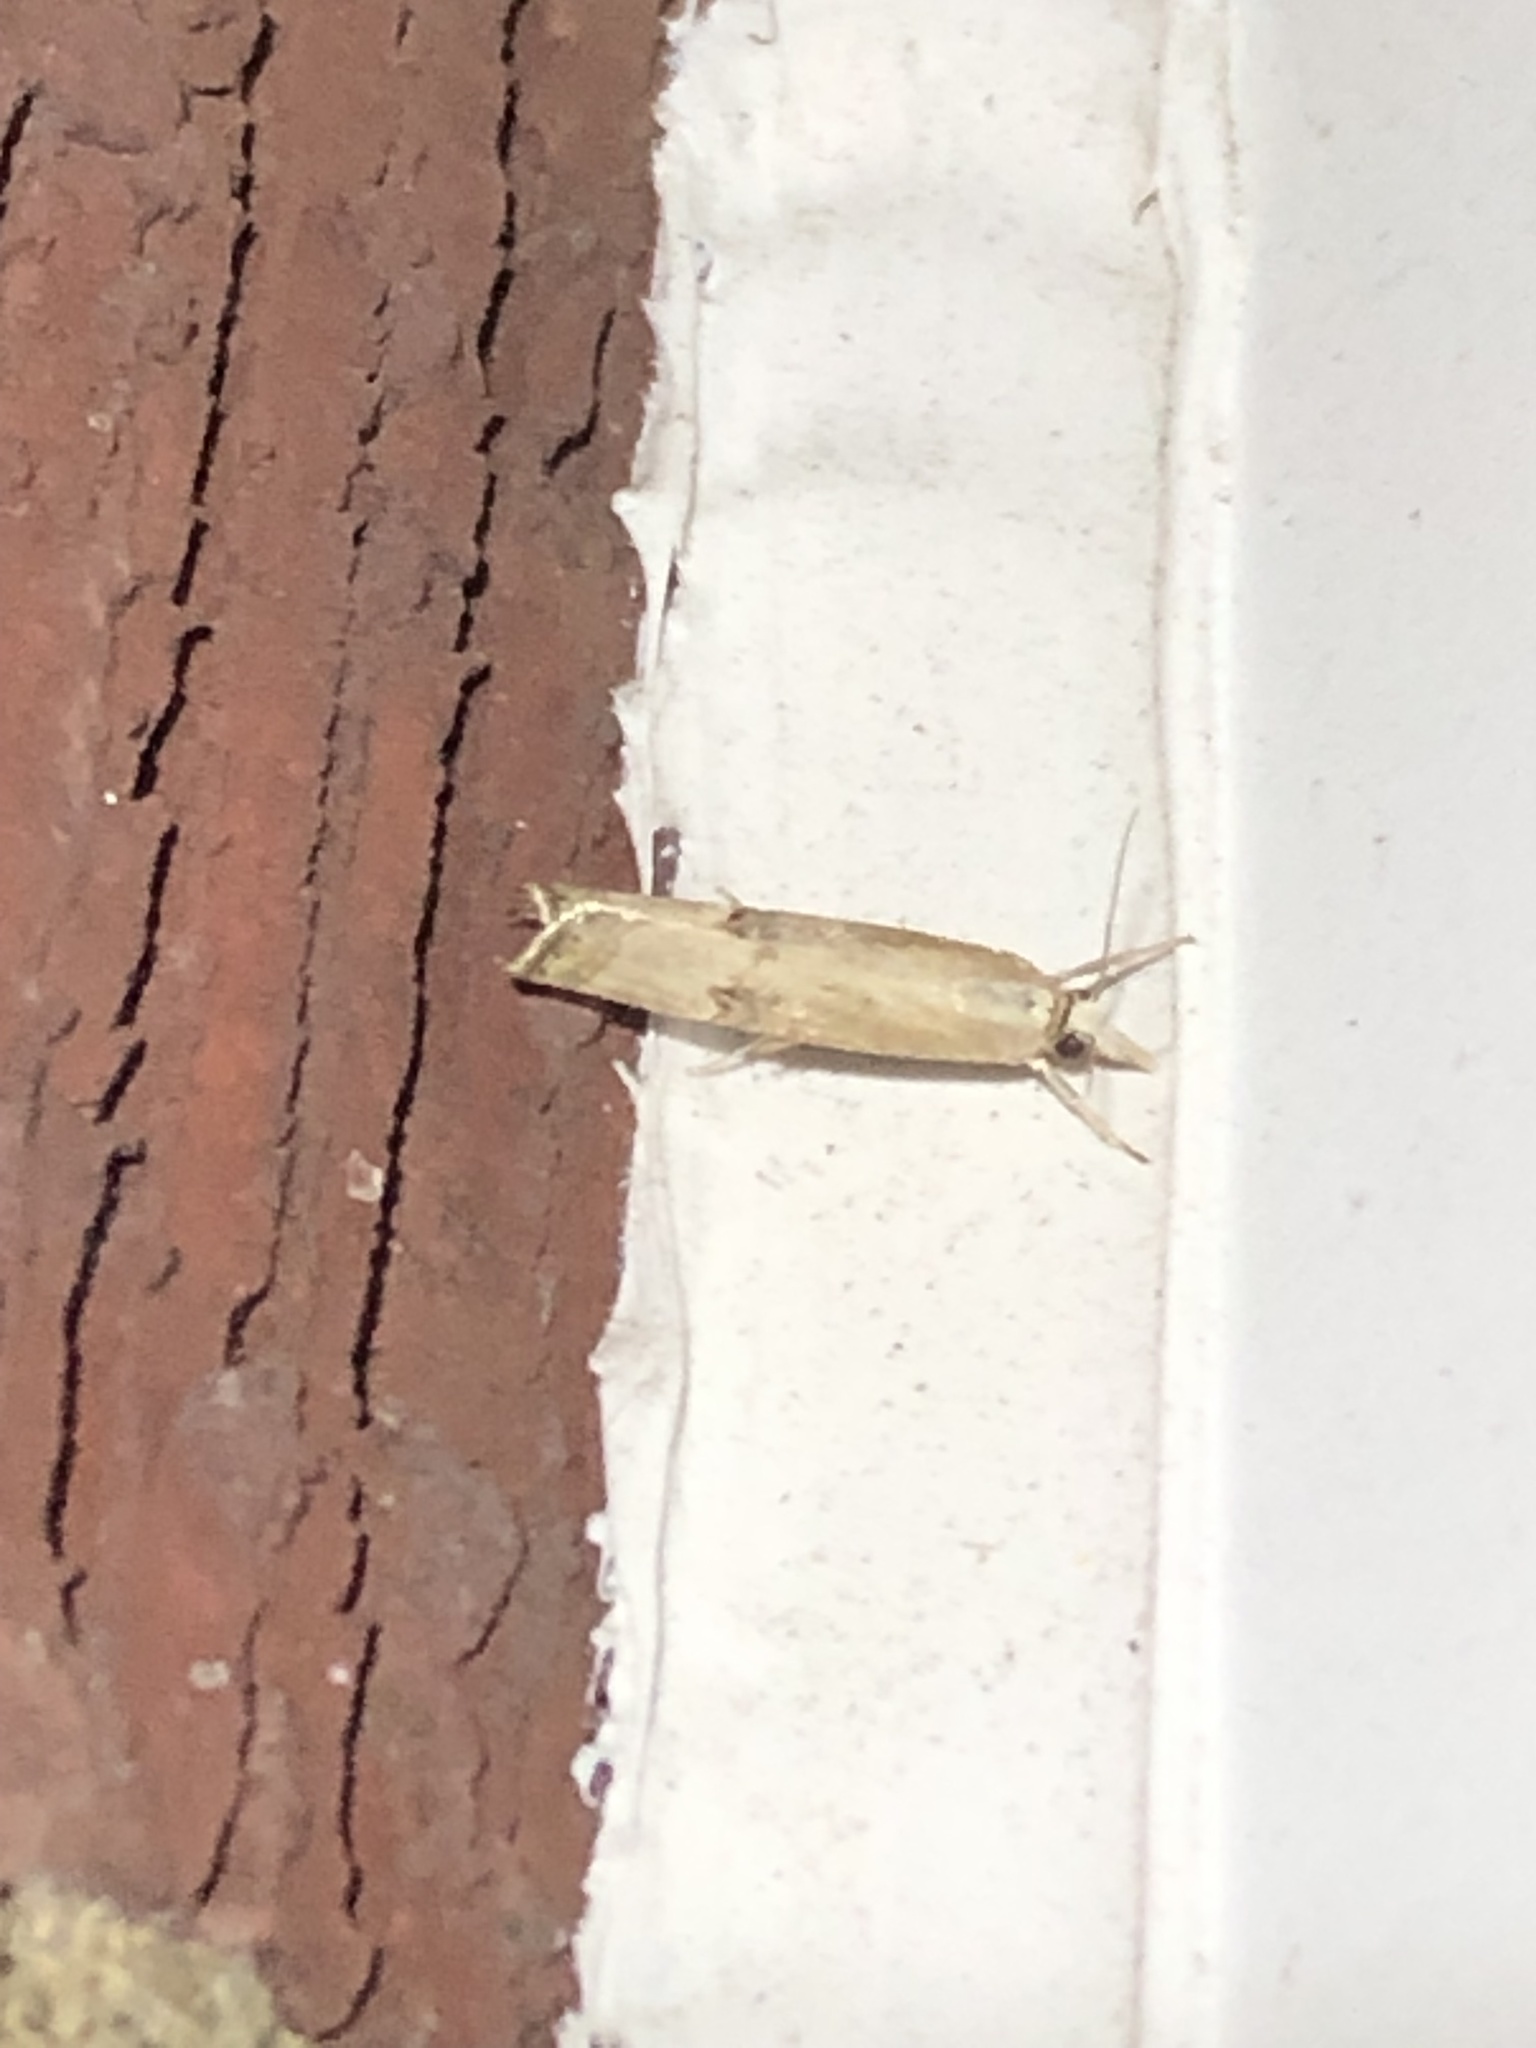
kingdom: Animalia
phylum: Arthropoda
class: Insecta
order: Lepidoptera
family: Crambidae
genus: Parapediasia
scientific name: Parapediasia teterellus
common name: Bluegrass webworm moth
